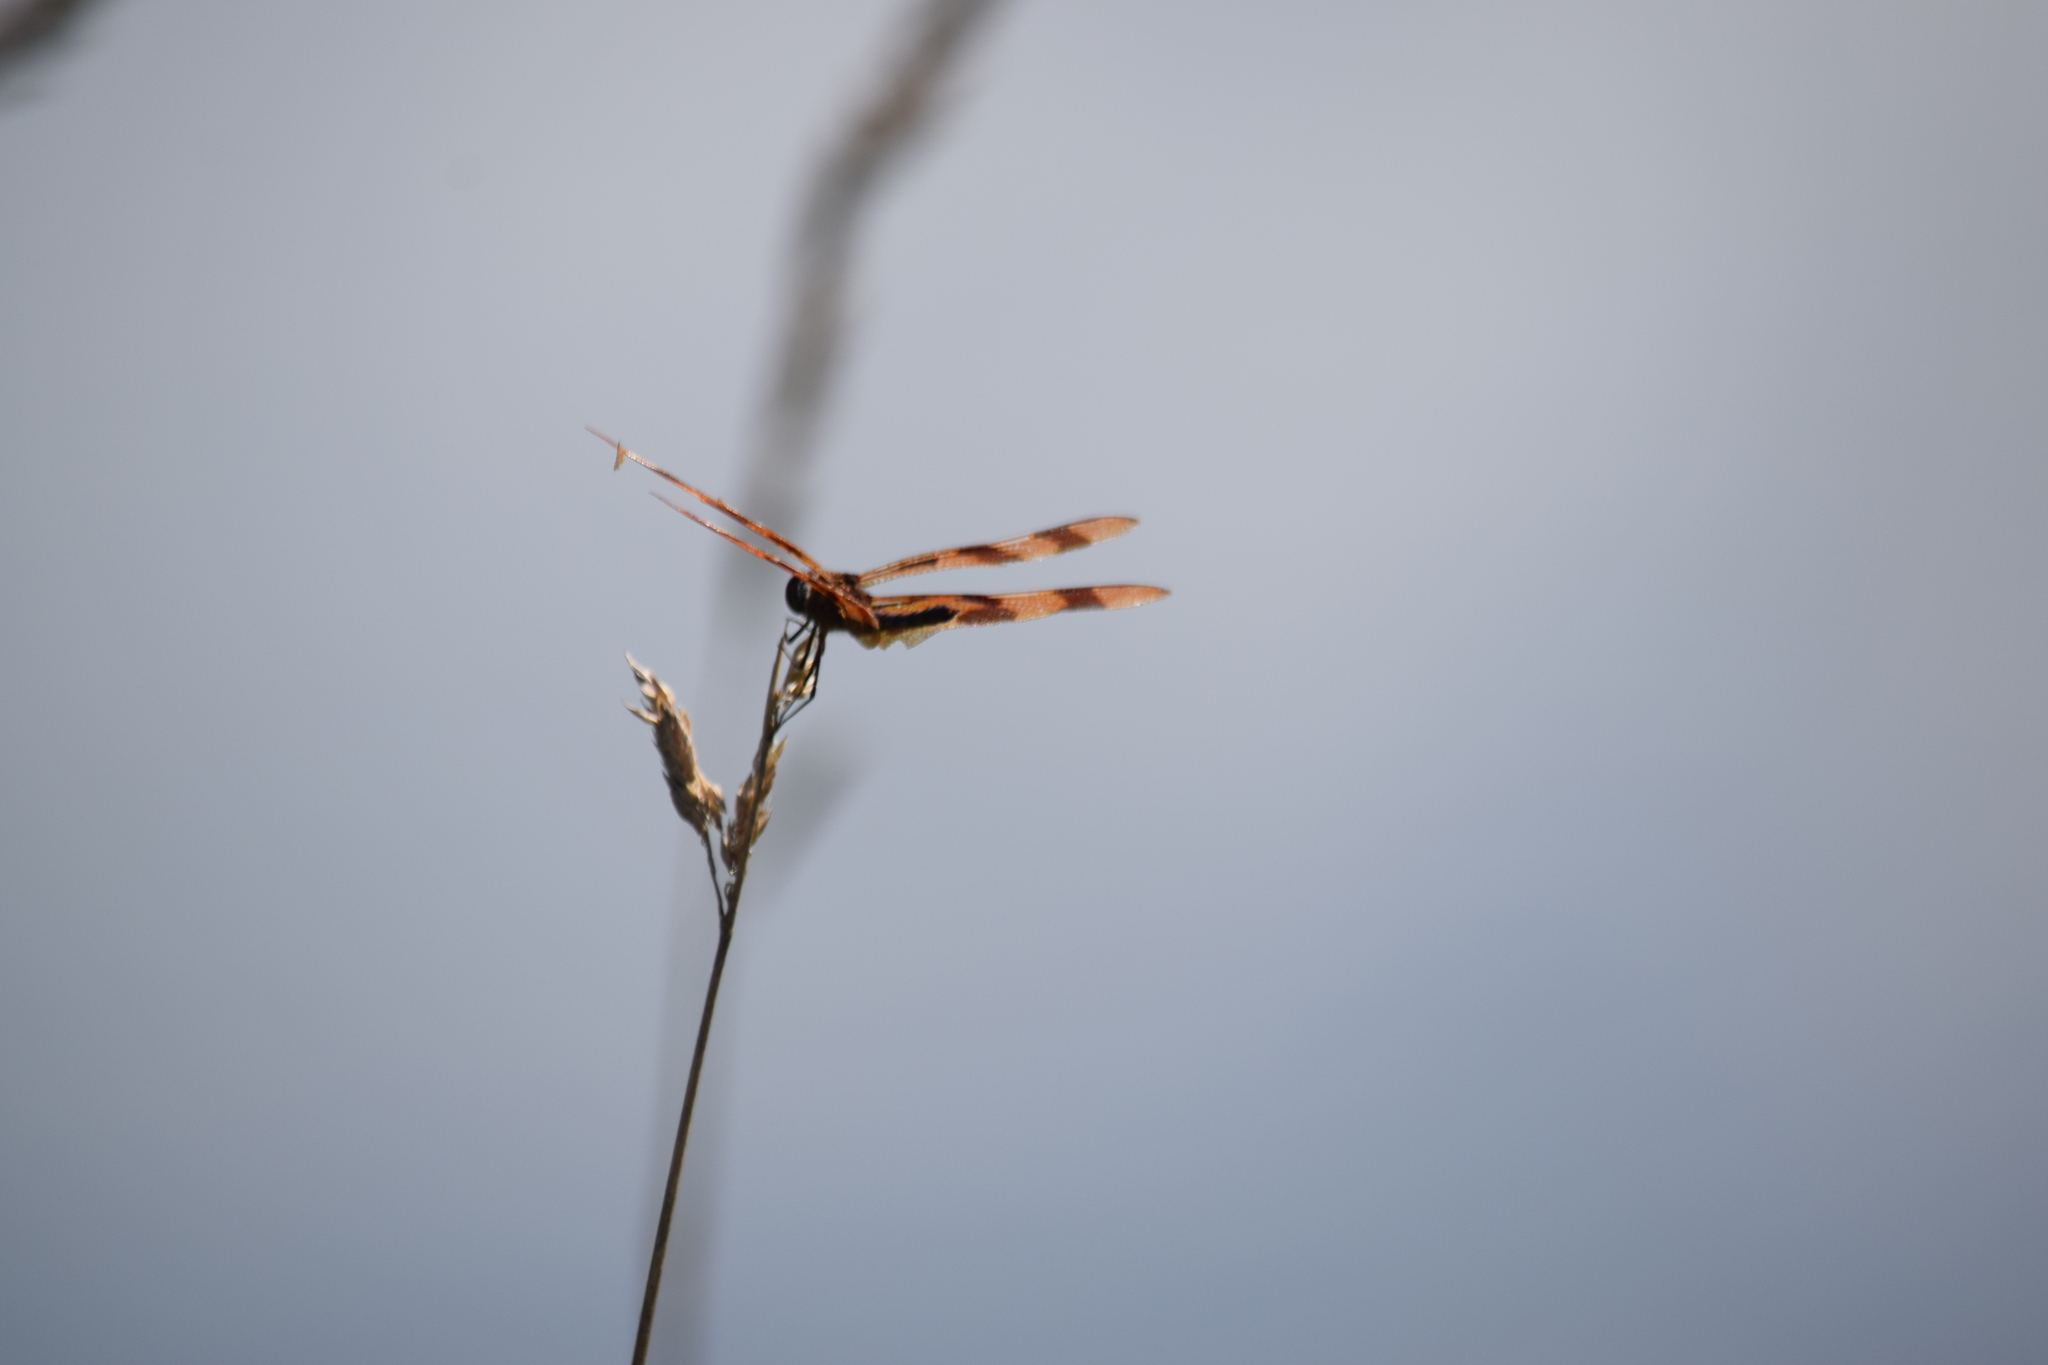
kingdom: Animalia
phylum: Arthropoda
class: Insecta
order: Odonata
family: Libellulidae
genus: Celithemis
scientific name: Celithemis eponina
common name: Halloween pennant
